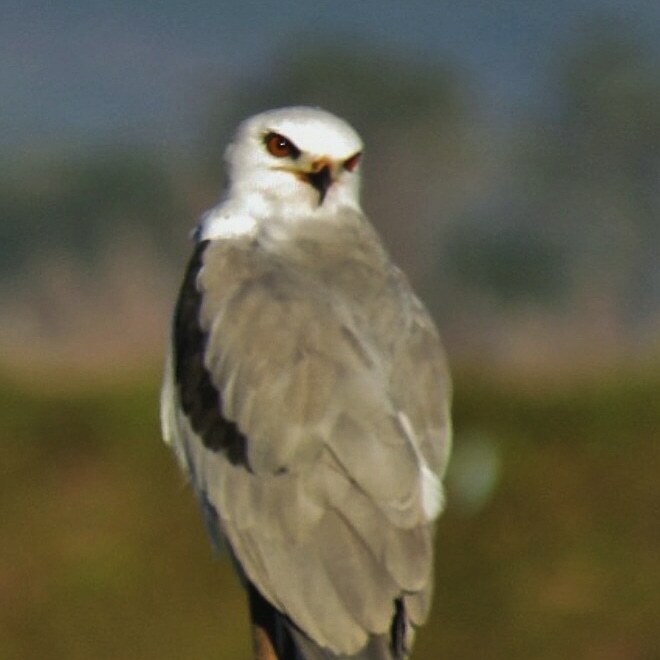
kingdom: Animalia
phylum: Chordata
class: Aves
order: Accipitriformes
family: Accipitridae
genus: Elanus
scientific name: Elanus leucurus
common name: White-tailed kite
